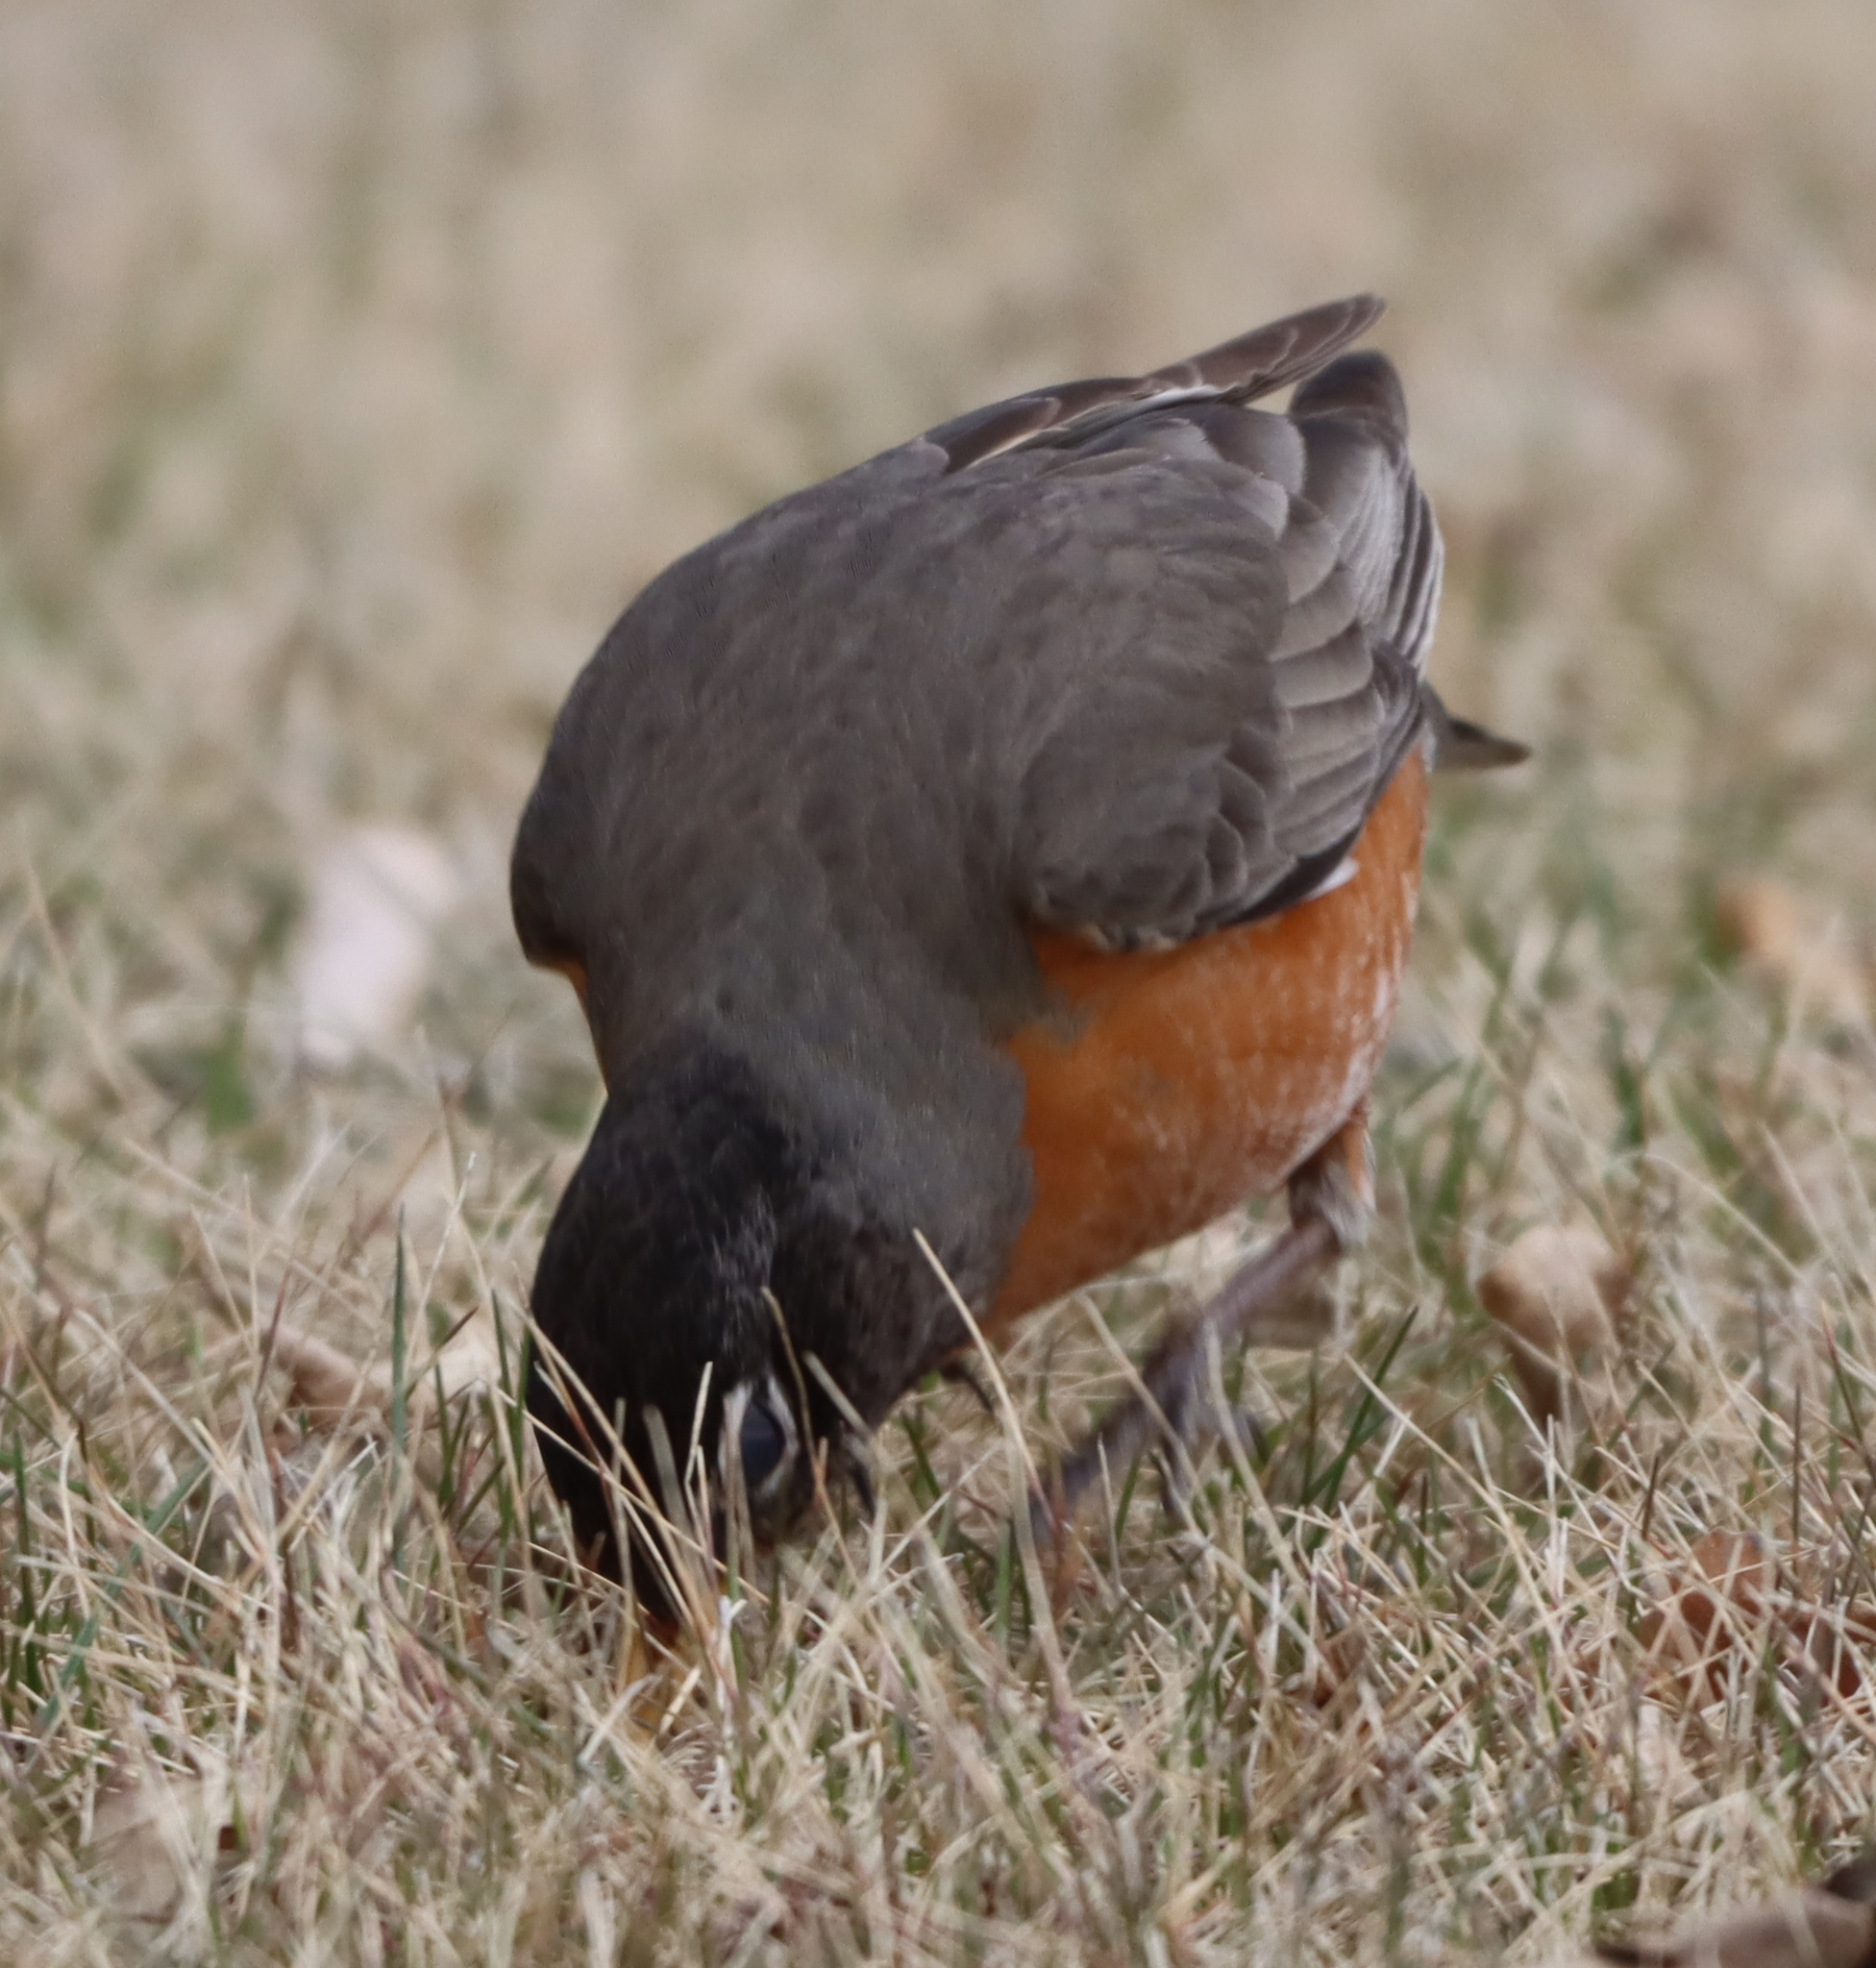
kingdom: Animalia
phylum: Chordata
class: Aves
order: Passeriformes
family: Turdidae
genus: Turdus
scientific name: Turdus migratorius
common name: American robin
